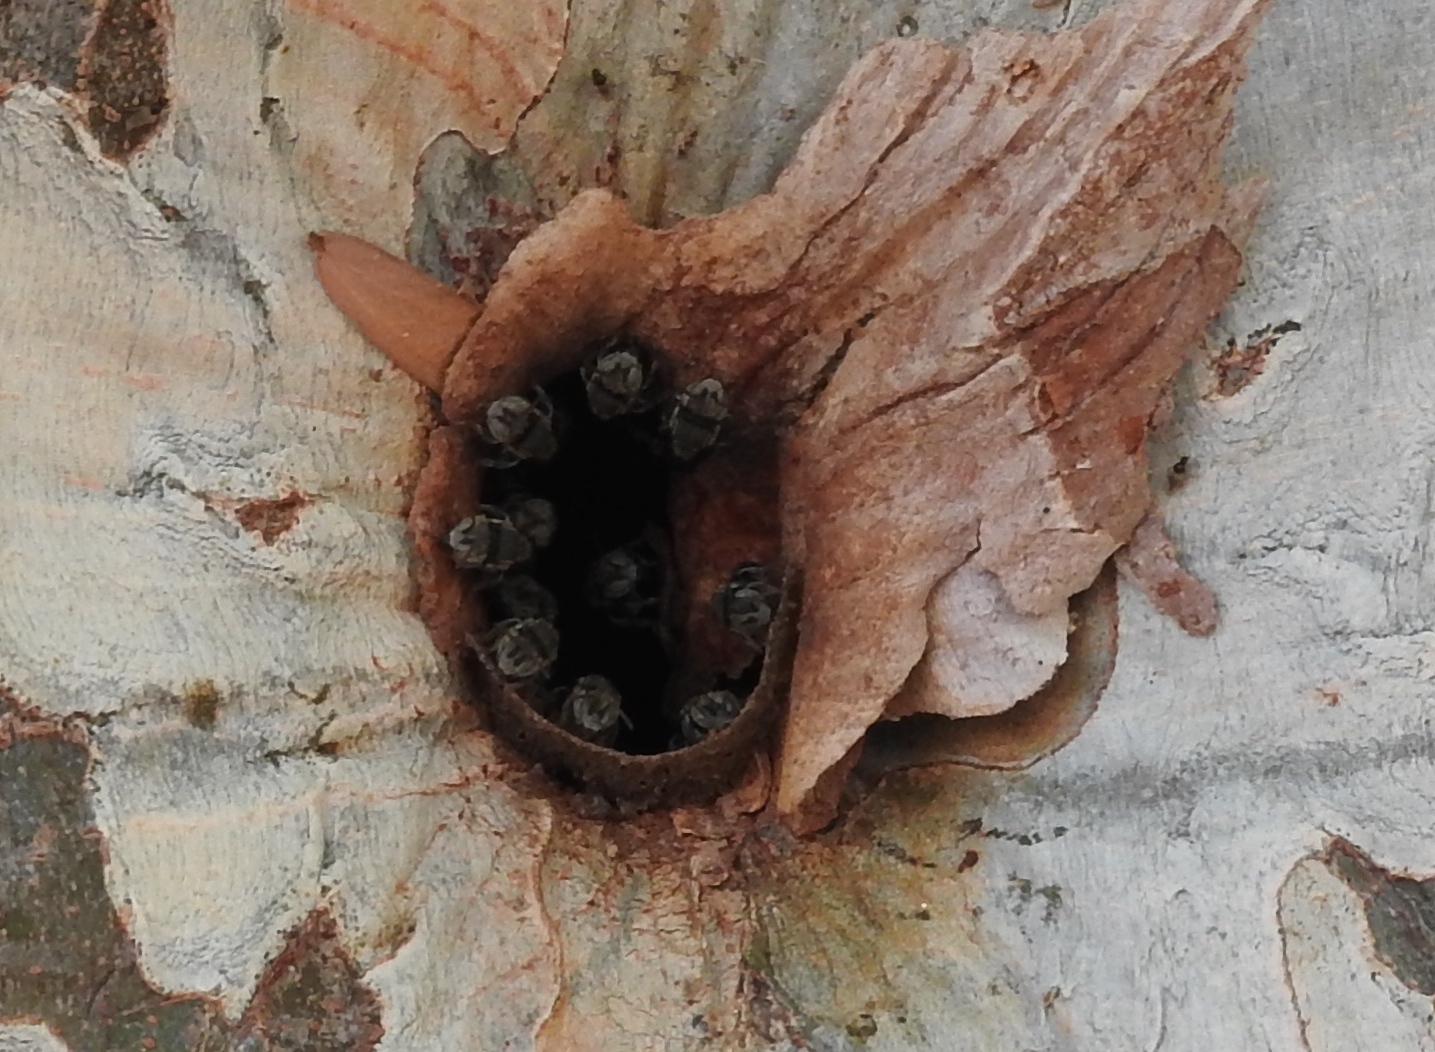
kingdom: Animalia
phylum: Arthropoda
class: Insecta
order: Hymenoptera
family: Apidae
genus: Nannotrigona
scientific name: Nannotrigona perilampoides
